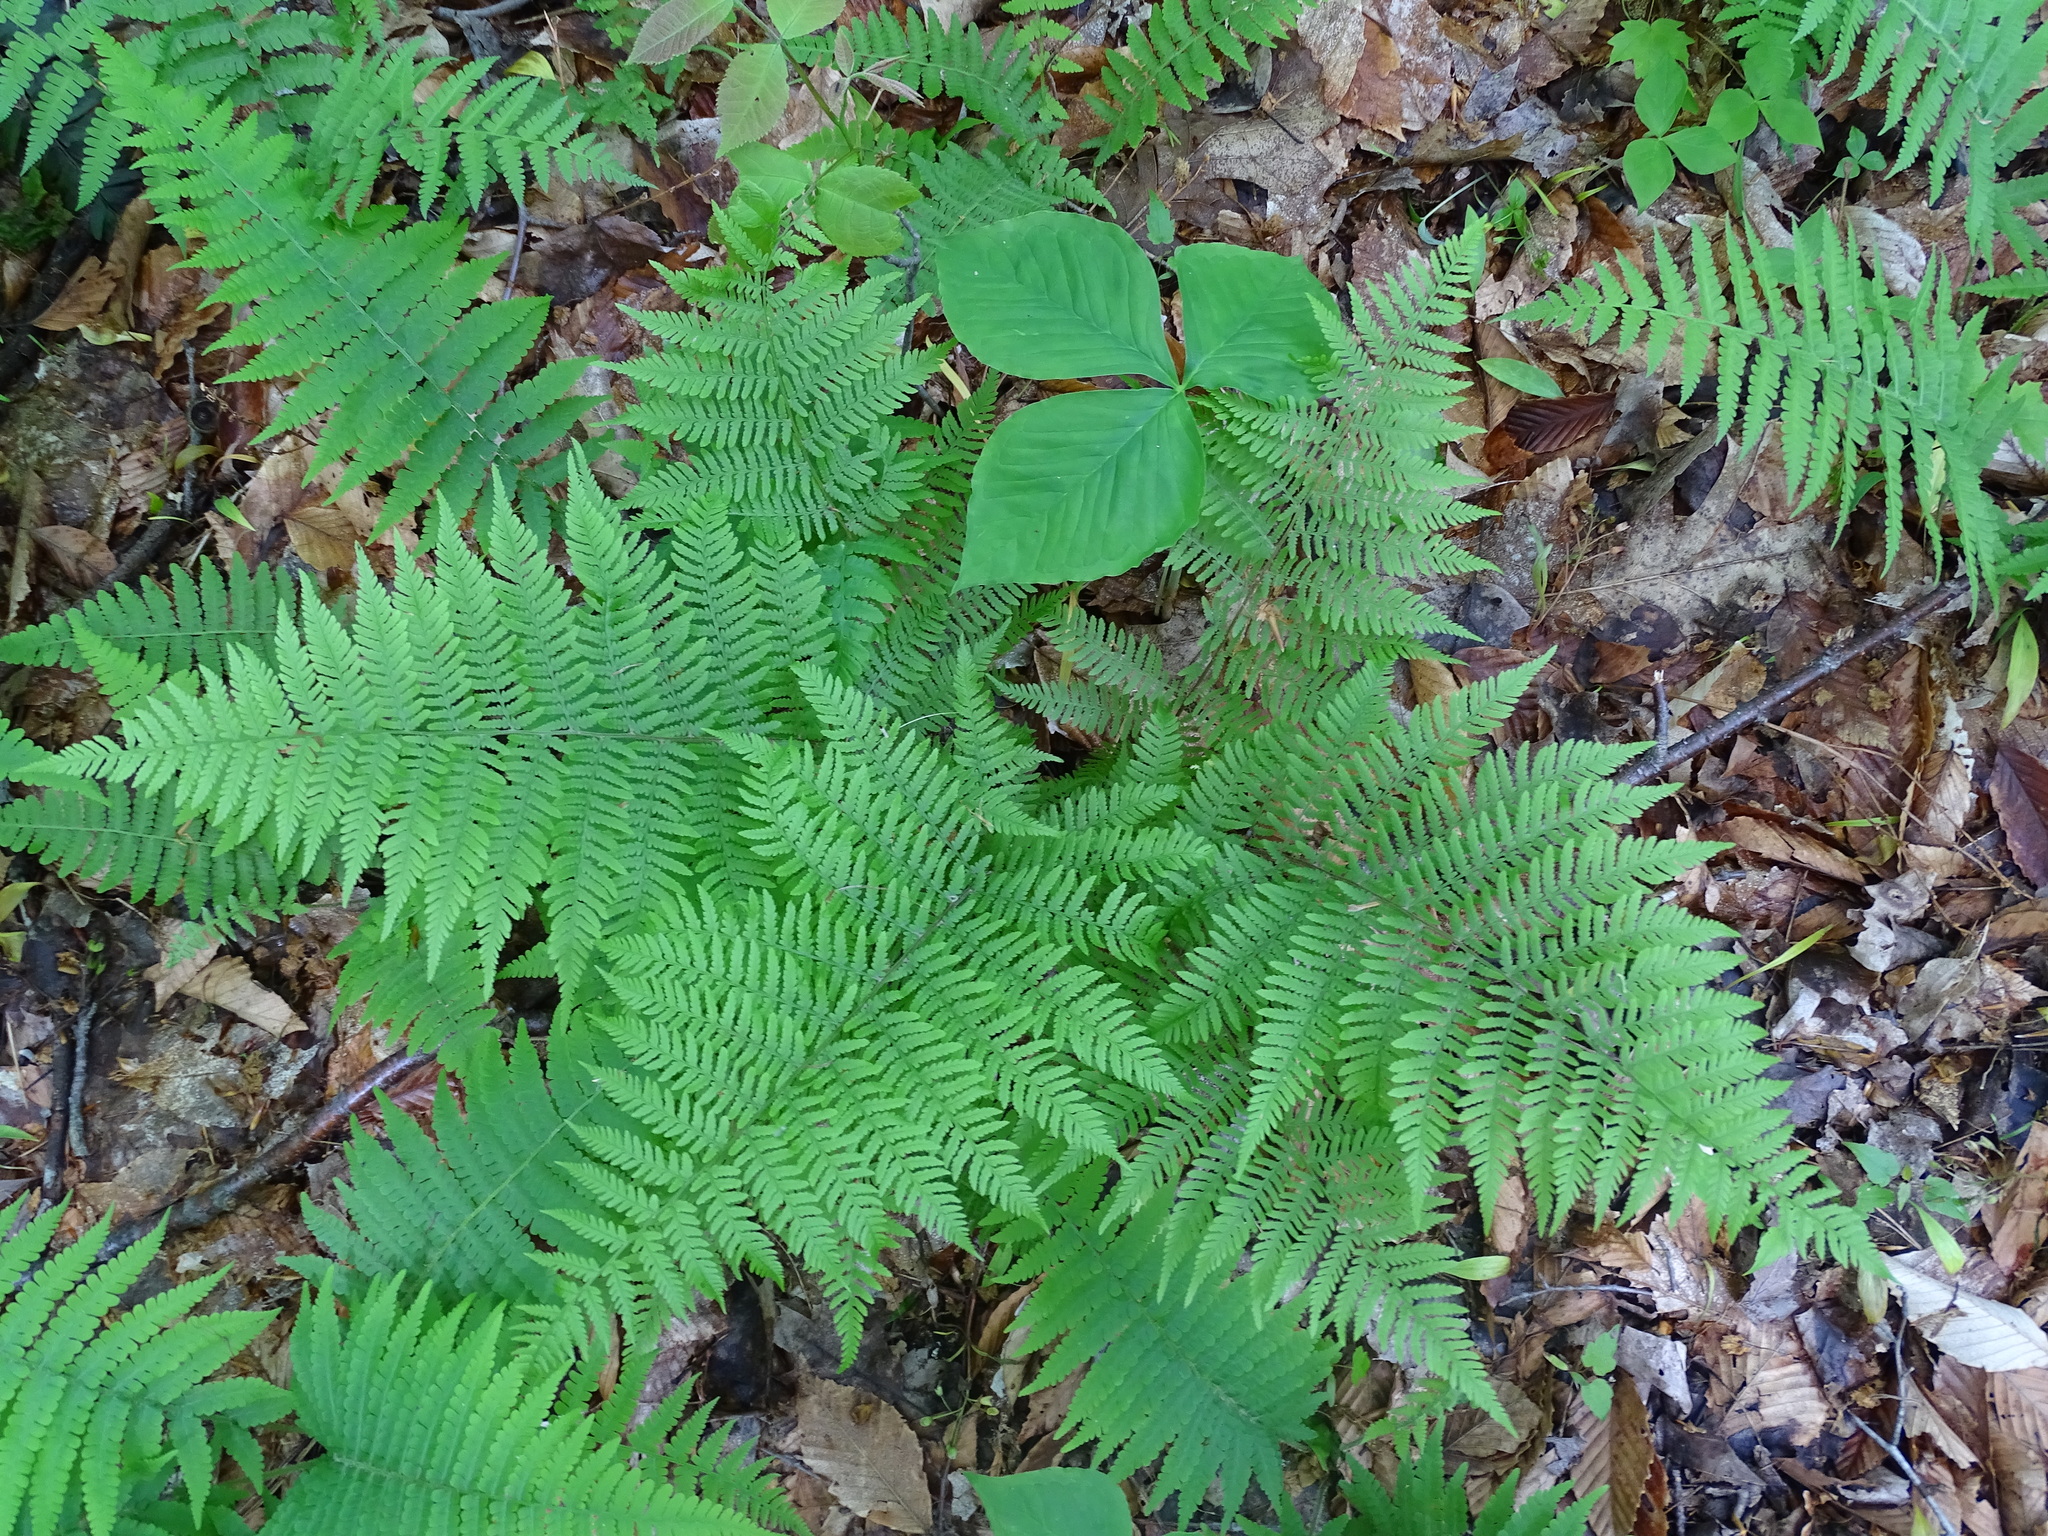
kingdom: Plantae
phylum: Tracheophyta
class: Polypodiopsida
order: Polypodiales
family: Athyriaceae
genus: Athyrium
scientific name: Athyrium angustum
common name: Northern lady fern
